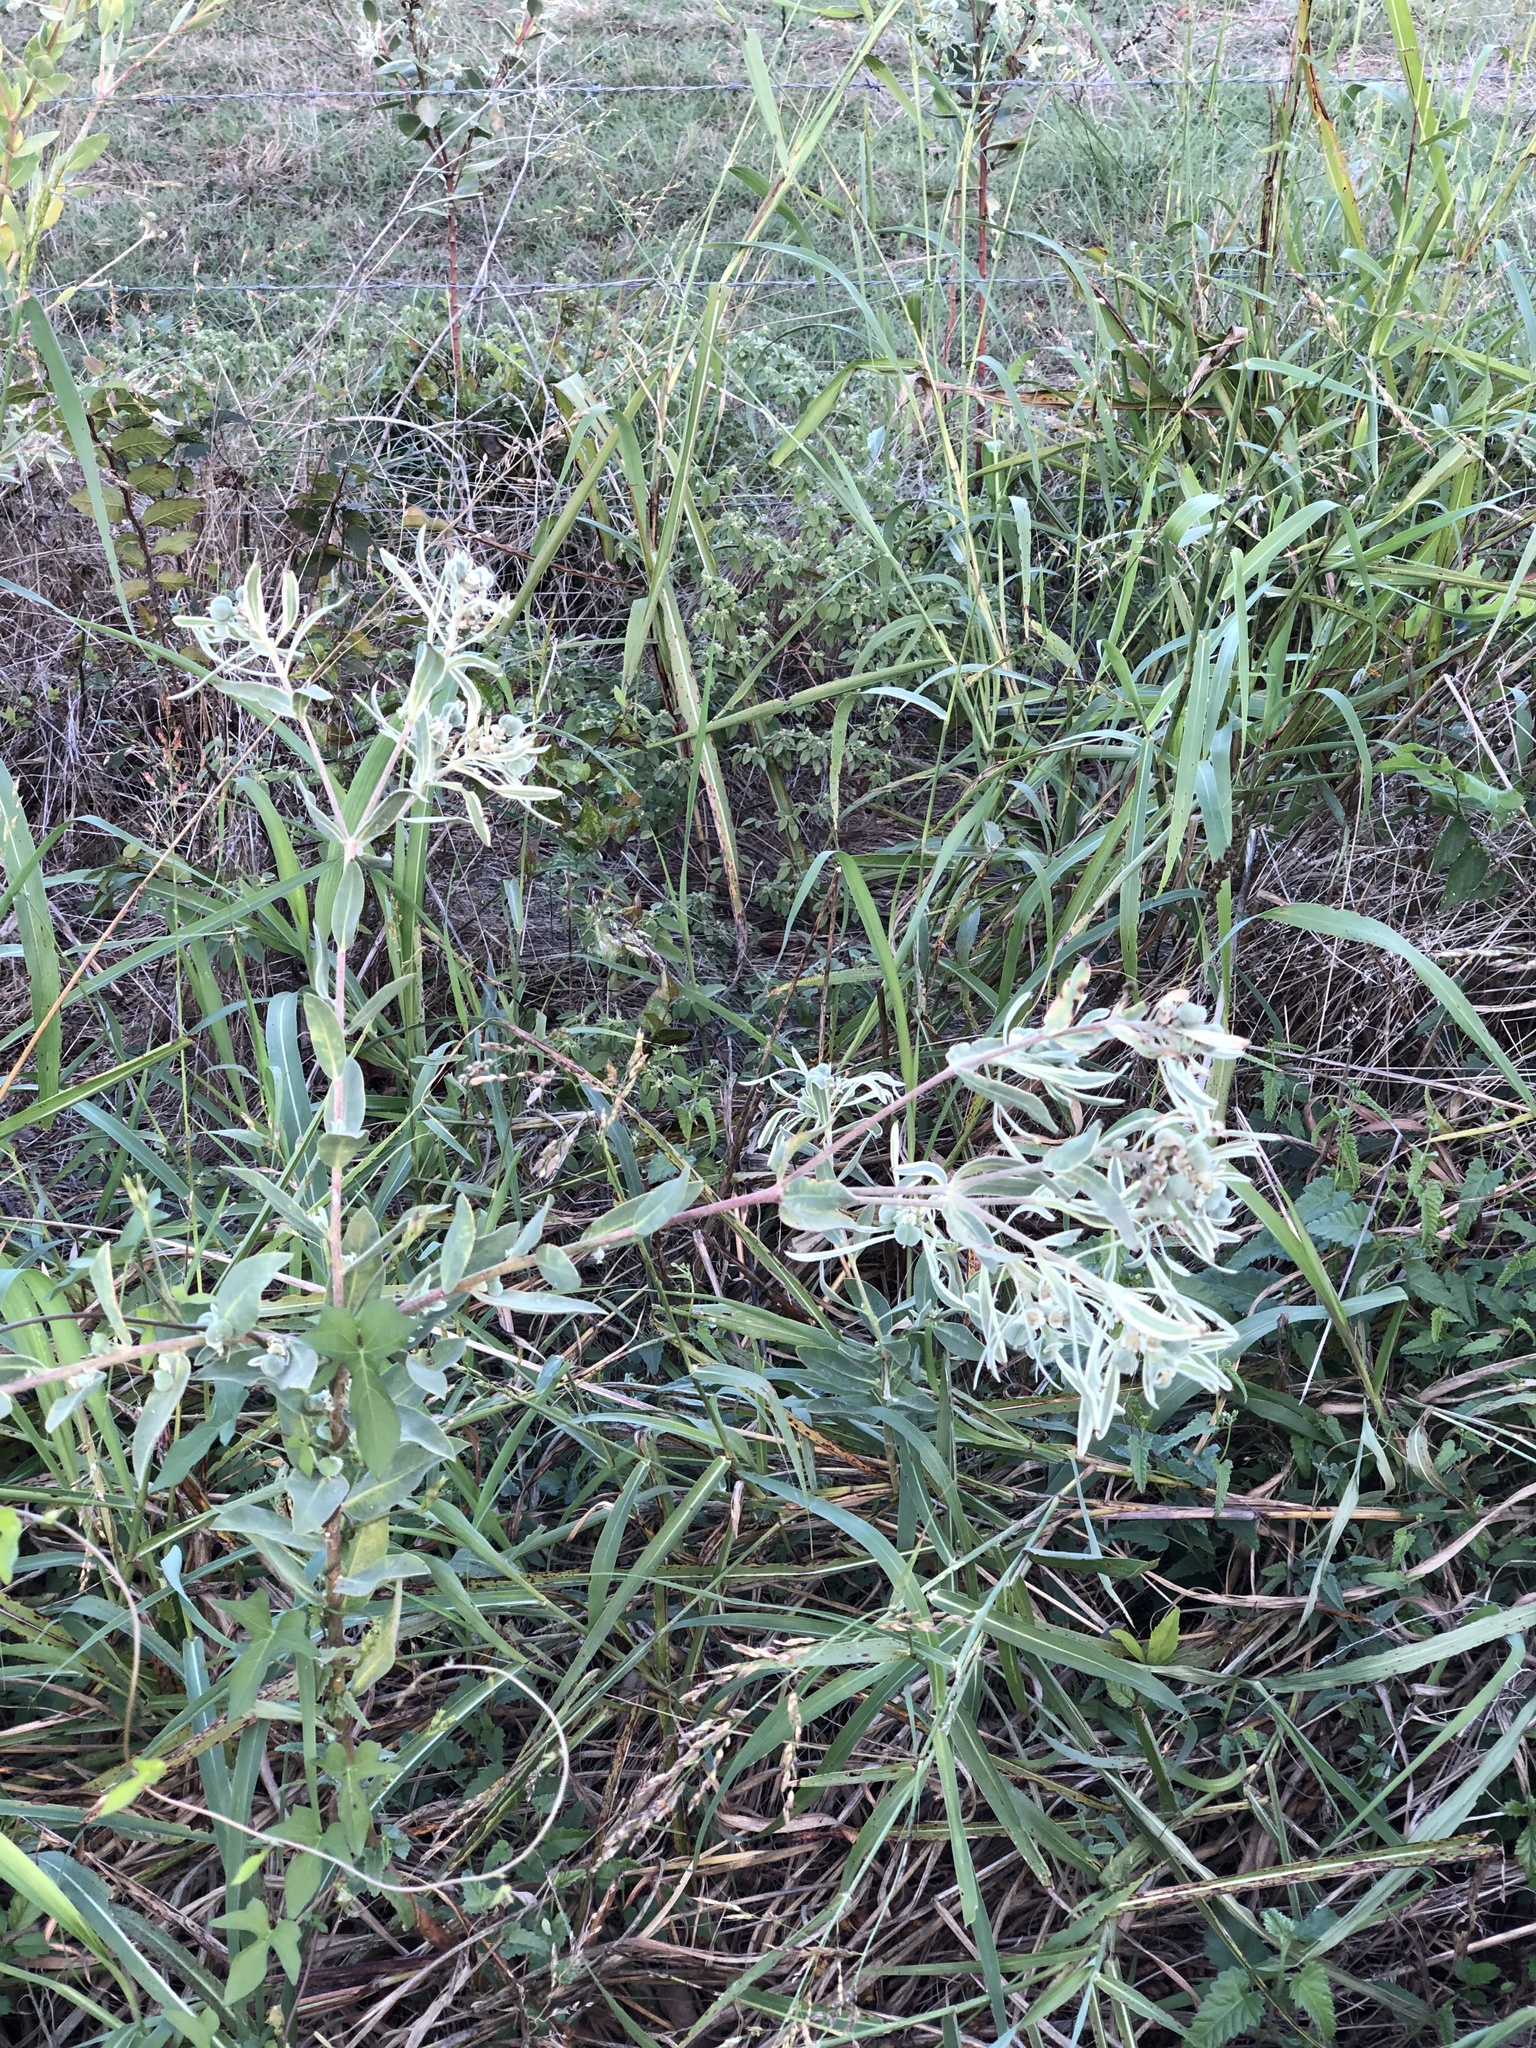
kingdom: Plantae
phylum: Tracheophyta
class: Magnoliopsida
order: Malpighiales
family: Euphorbiaceae
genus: Euphorbia
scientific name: Euphorbia bicolor
